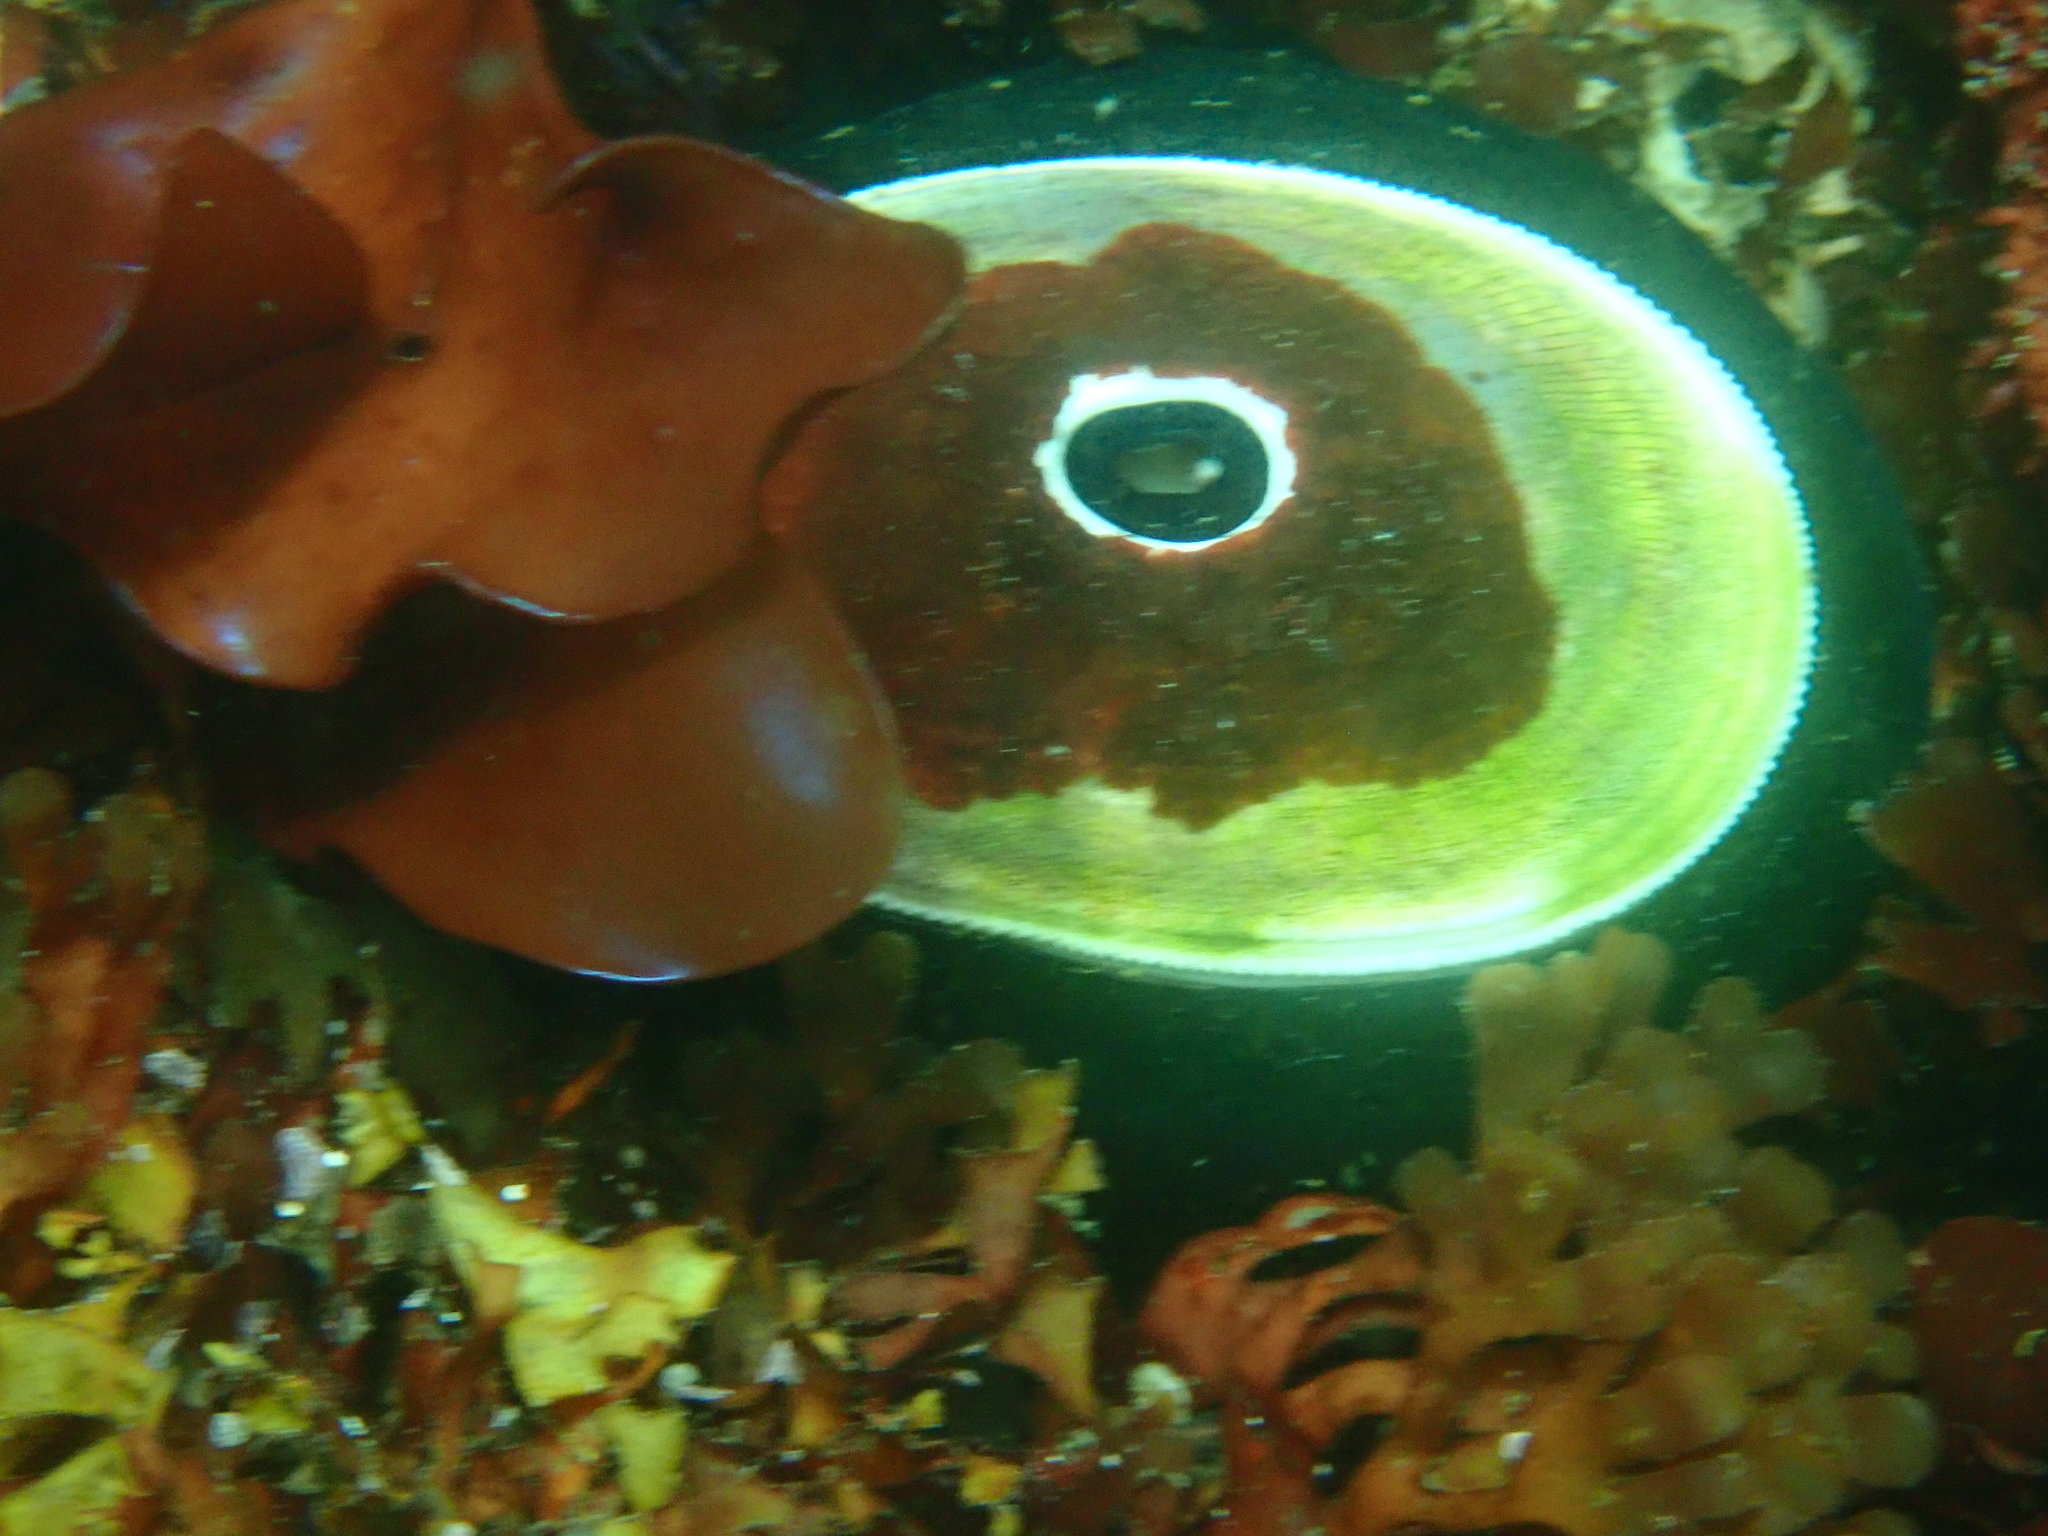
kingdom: Animalia
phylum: Mollusca
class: Gastropoda
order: Lepetellida
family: Fissurellidae
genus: Megathura
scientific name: Megathura crenulata
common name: Giant keyhole limpet
